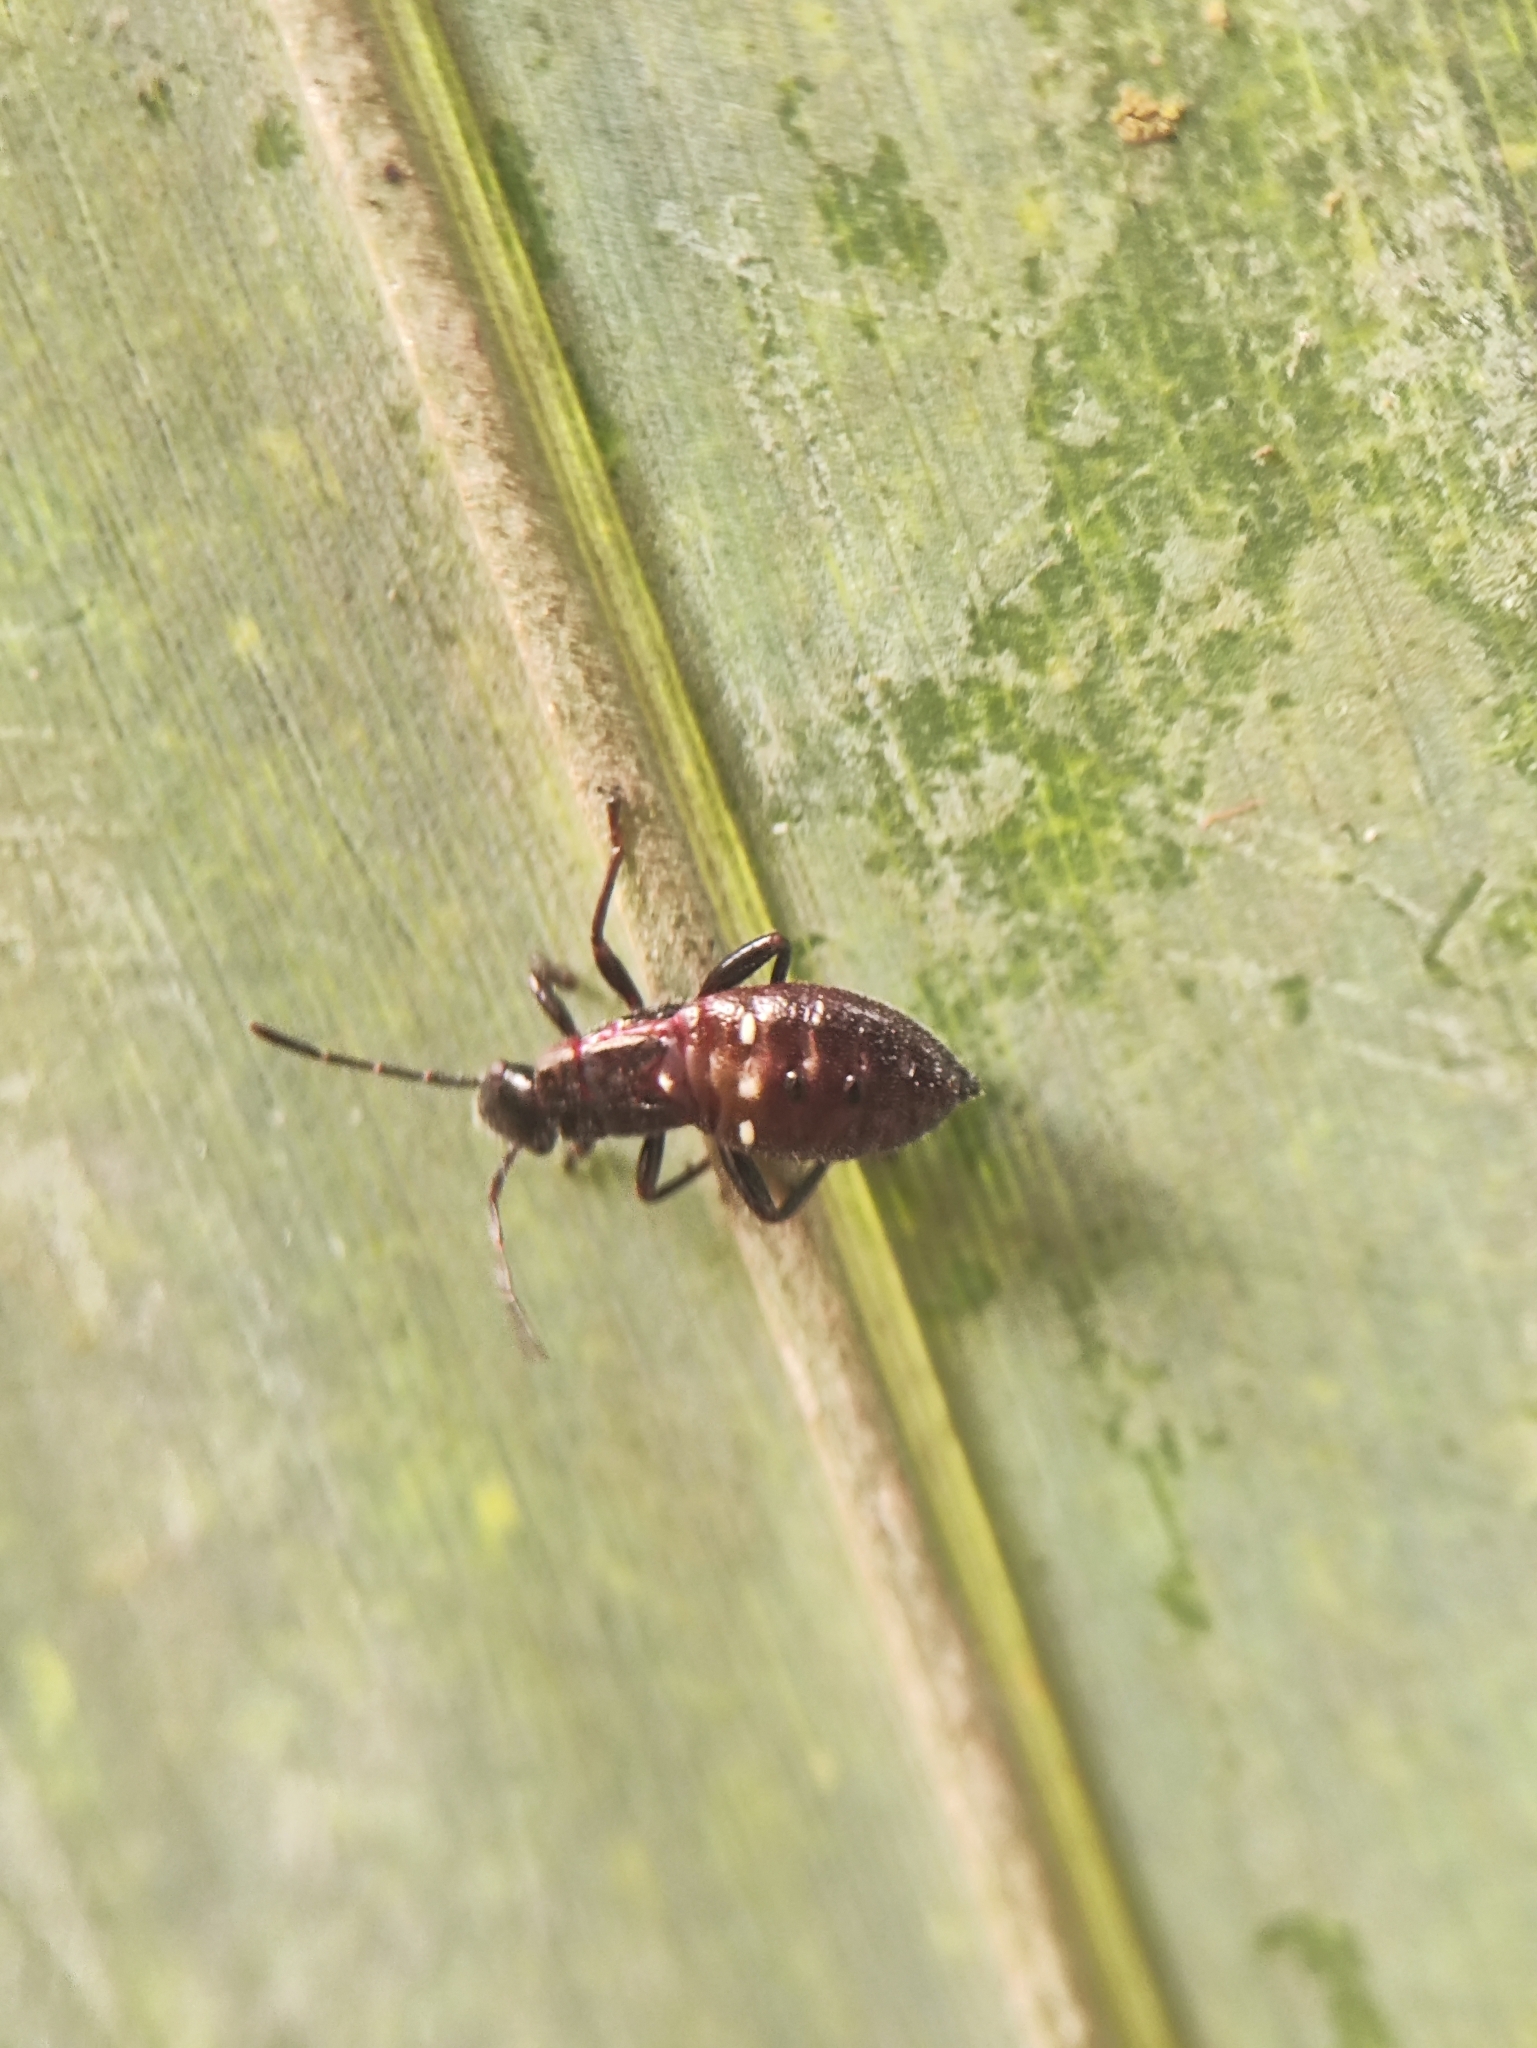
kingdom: Animalia
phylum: Arthropoda
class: Insecta
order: Hemiptera
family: Alydidae
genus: Daclera
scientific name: Daclera levana
